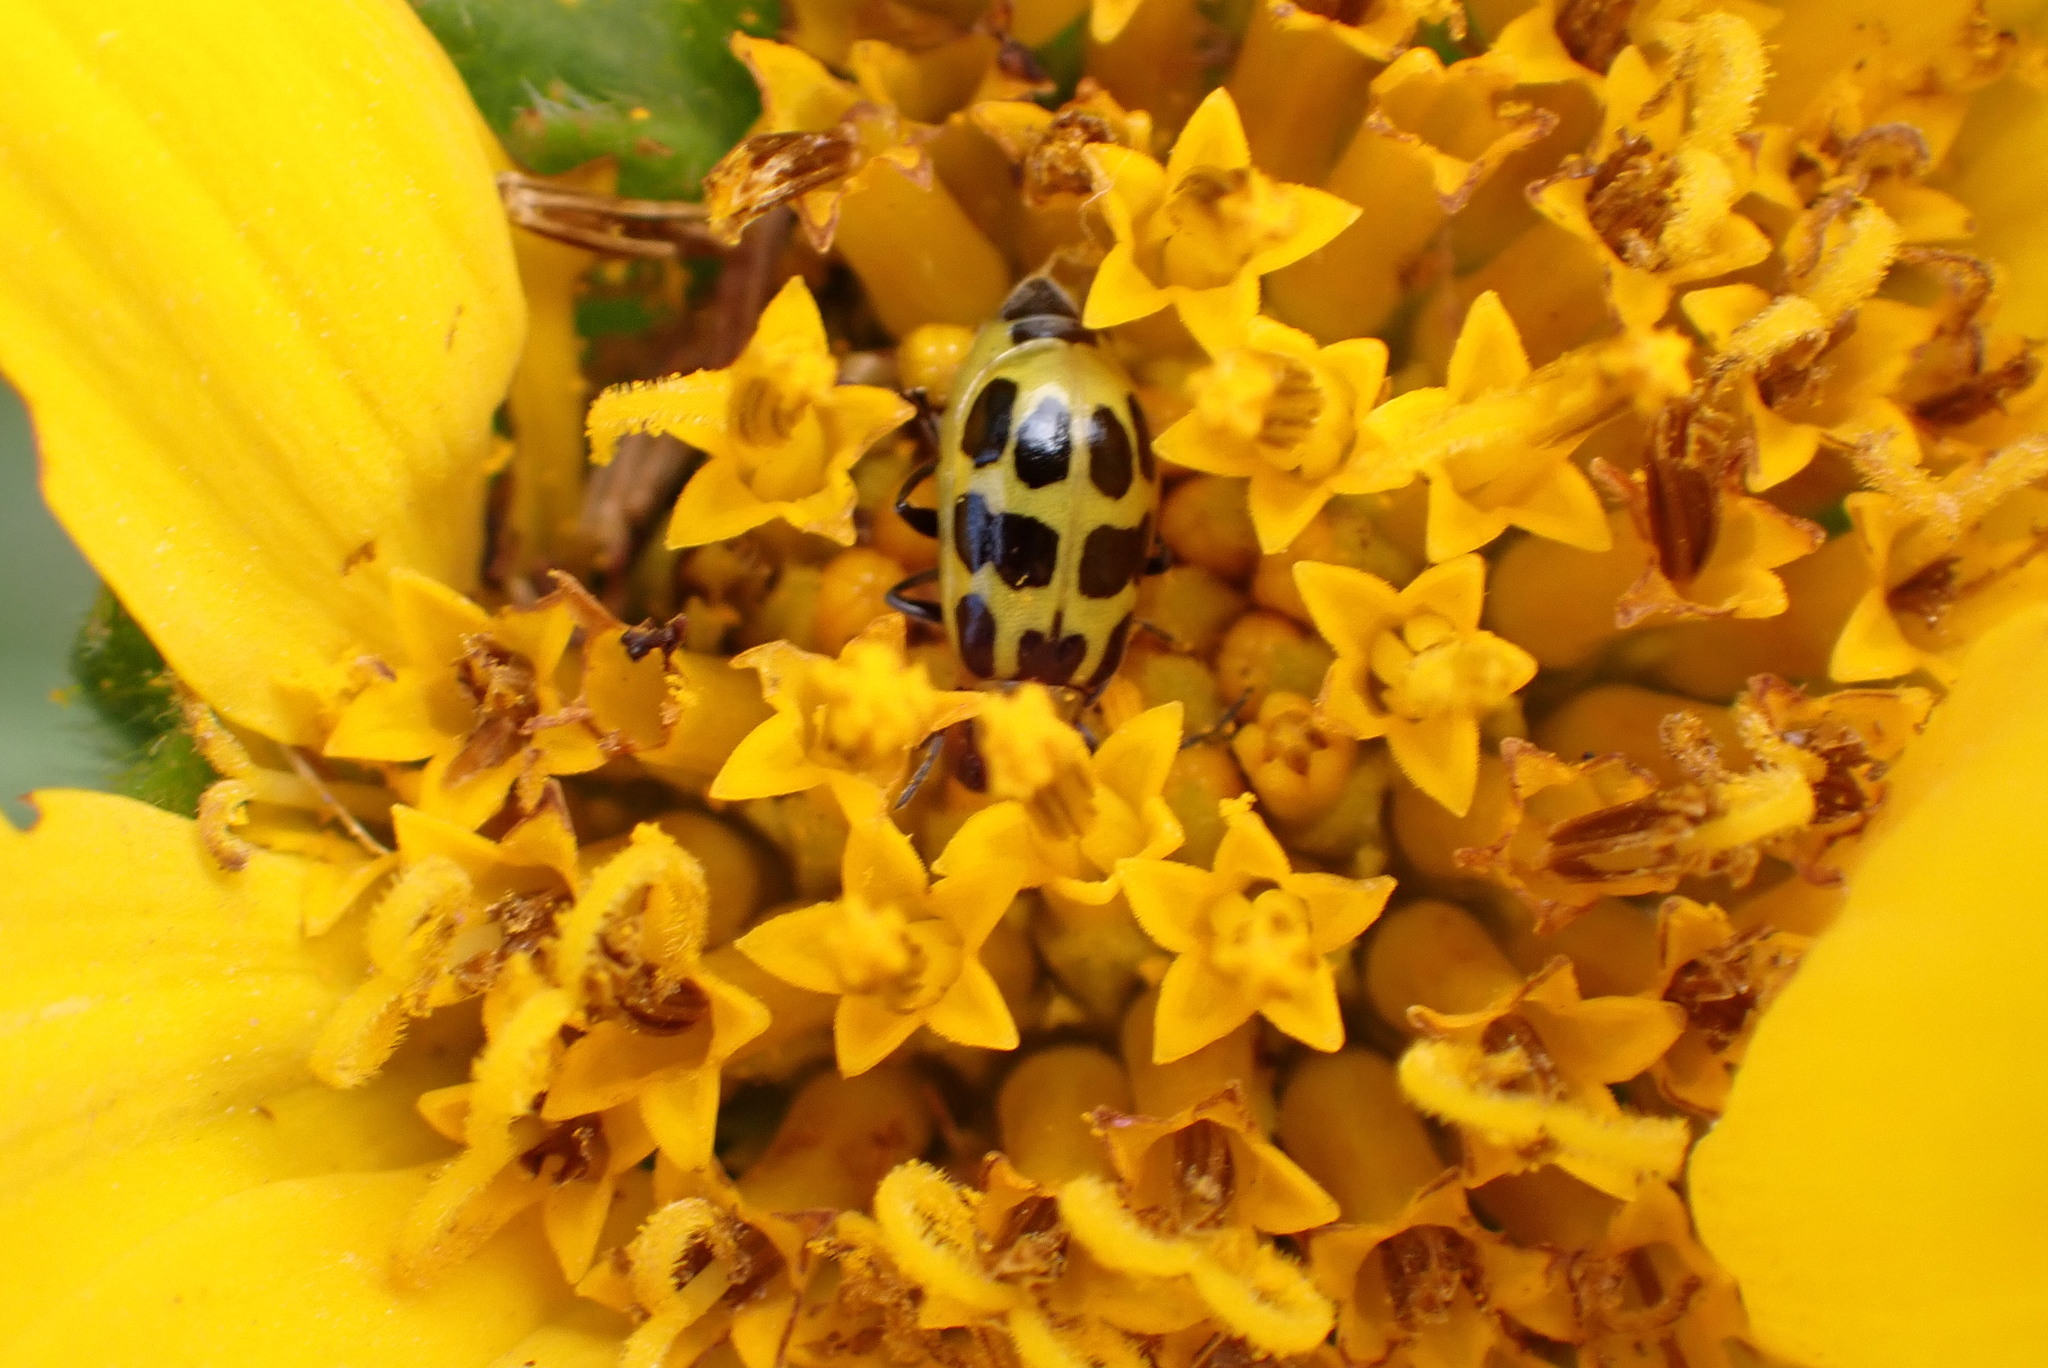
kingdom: Animalia
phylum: Arthropoda
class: Insecta
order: Coleoptera
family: Chrysomelidae
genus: Diabrotica
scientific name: Diabrotica undecimpunctata
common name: Spotted cucumber beetle
